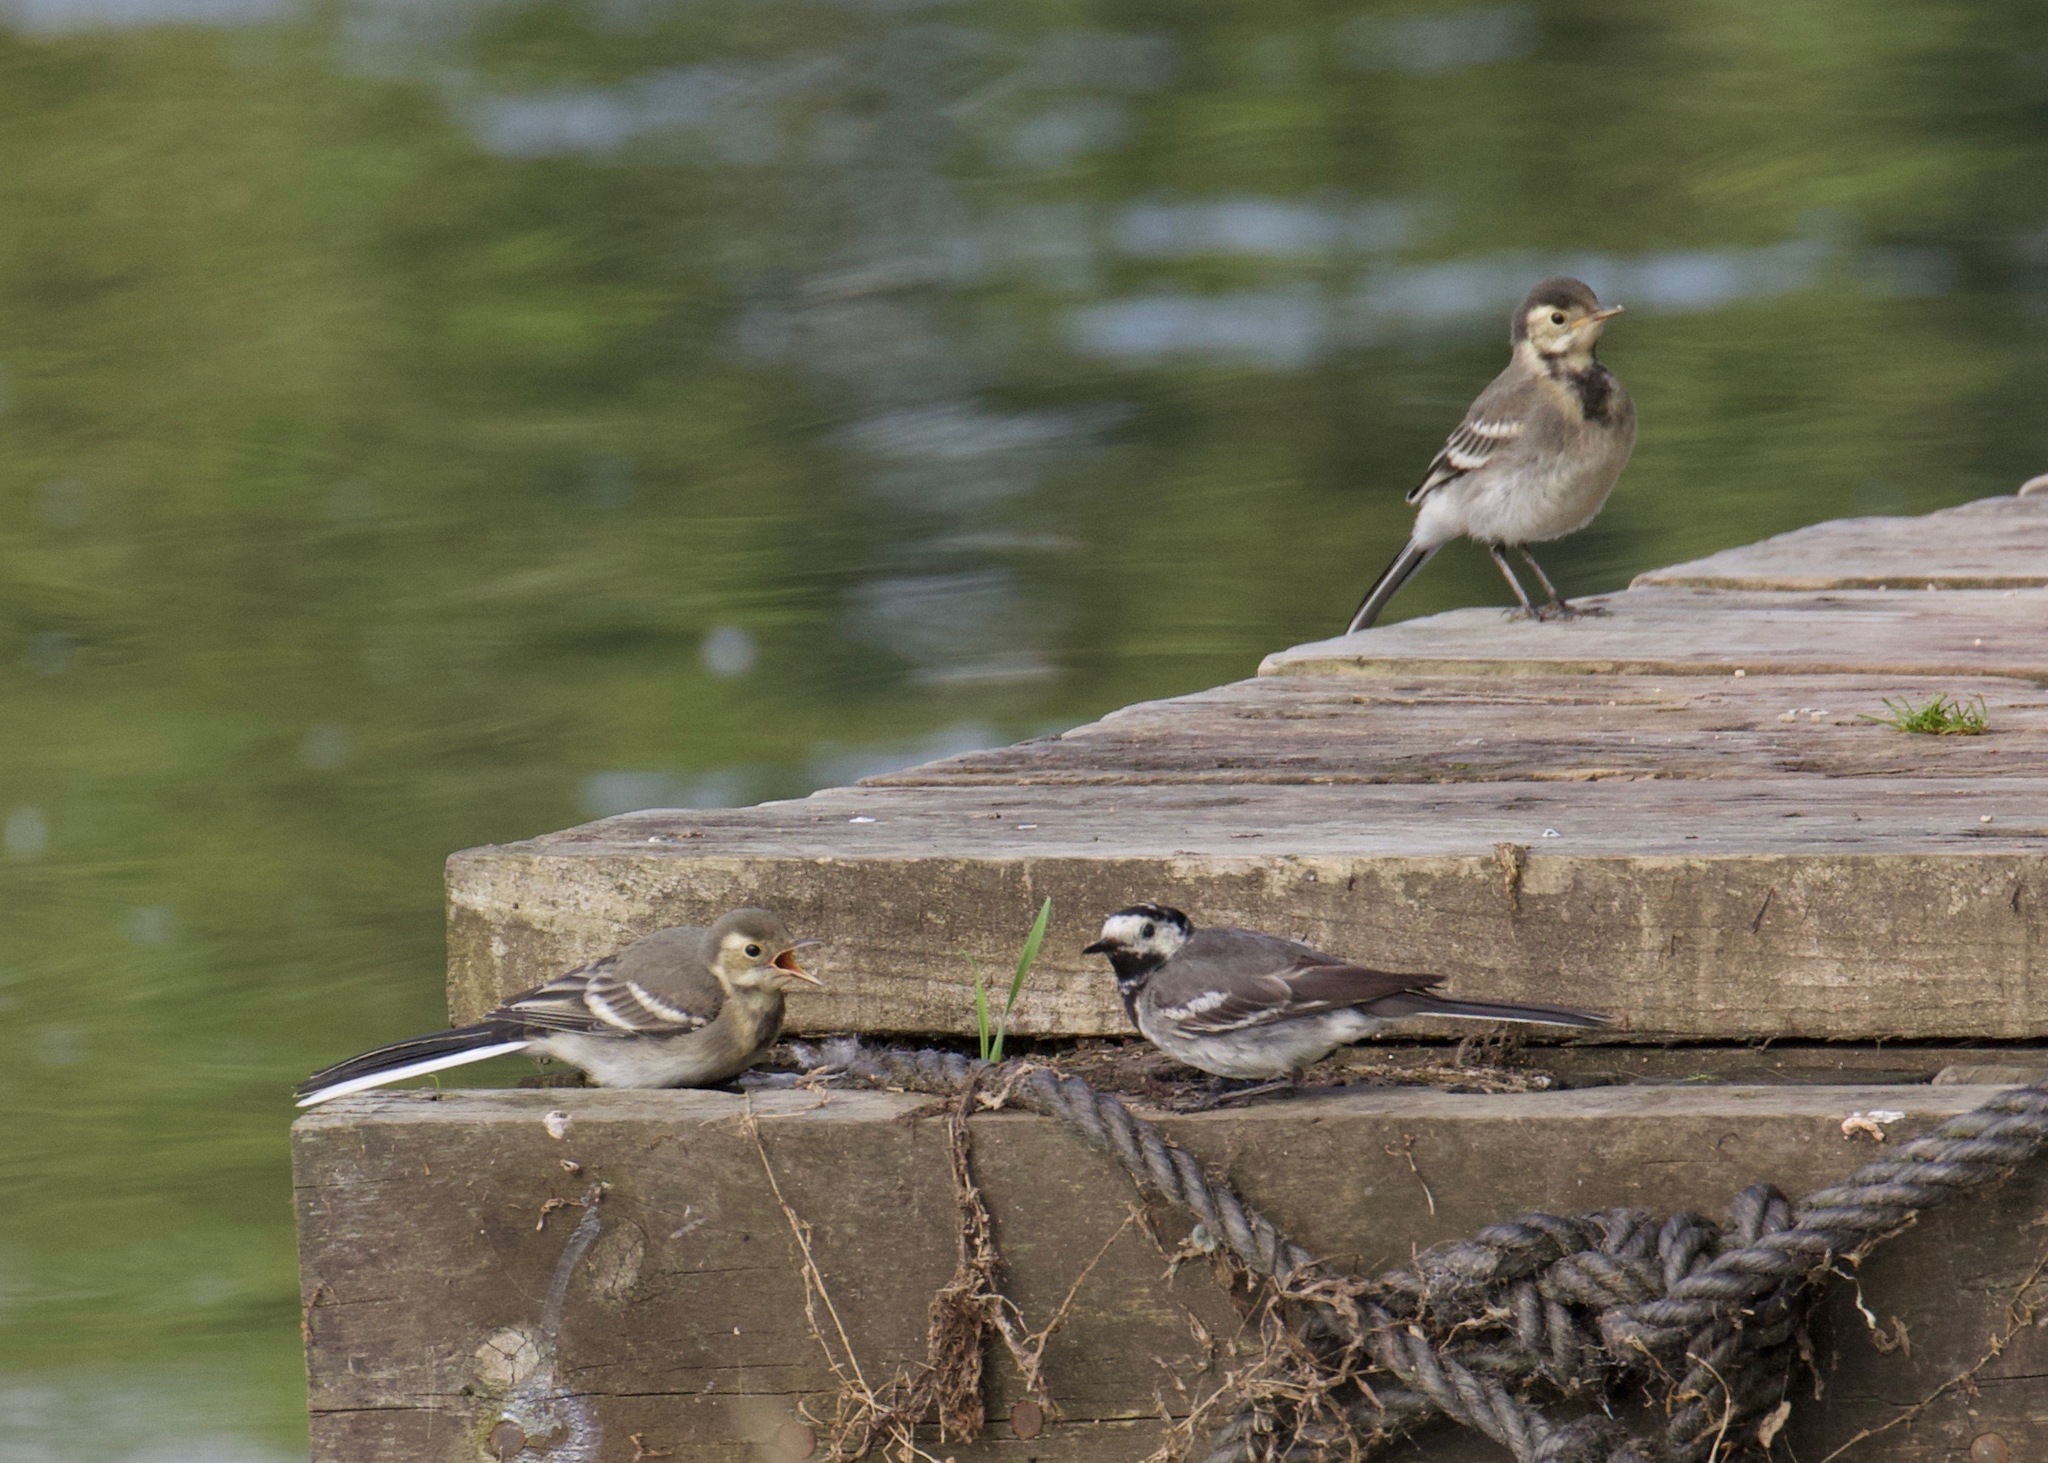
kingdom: Animalia
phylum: Chordata
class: Aves
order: Passeriformes
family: Motacillidae
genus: Motacilla
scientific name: Motacilla alba
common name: White wagtail
